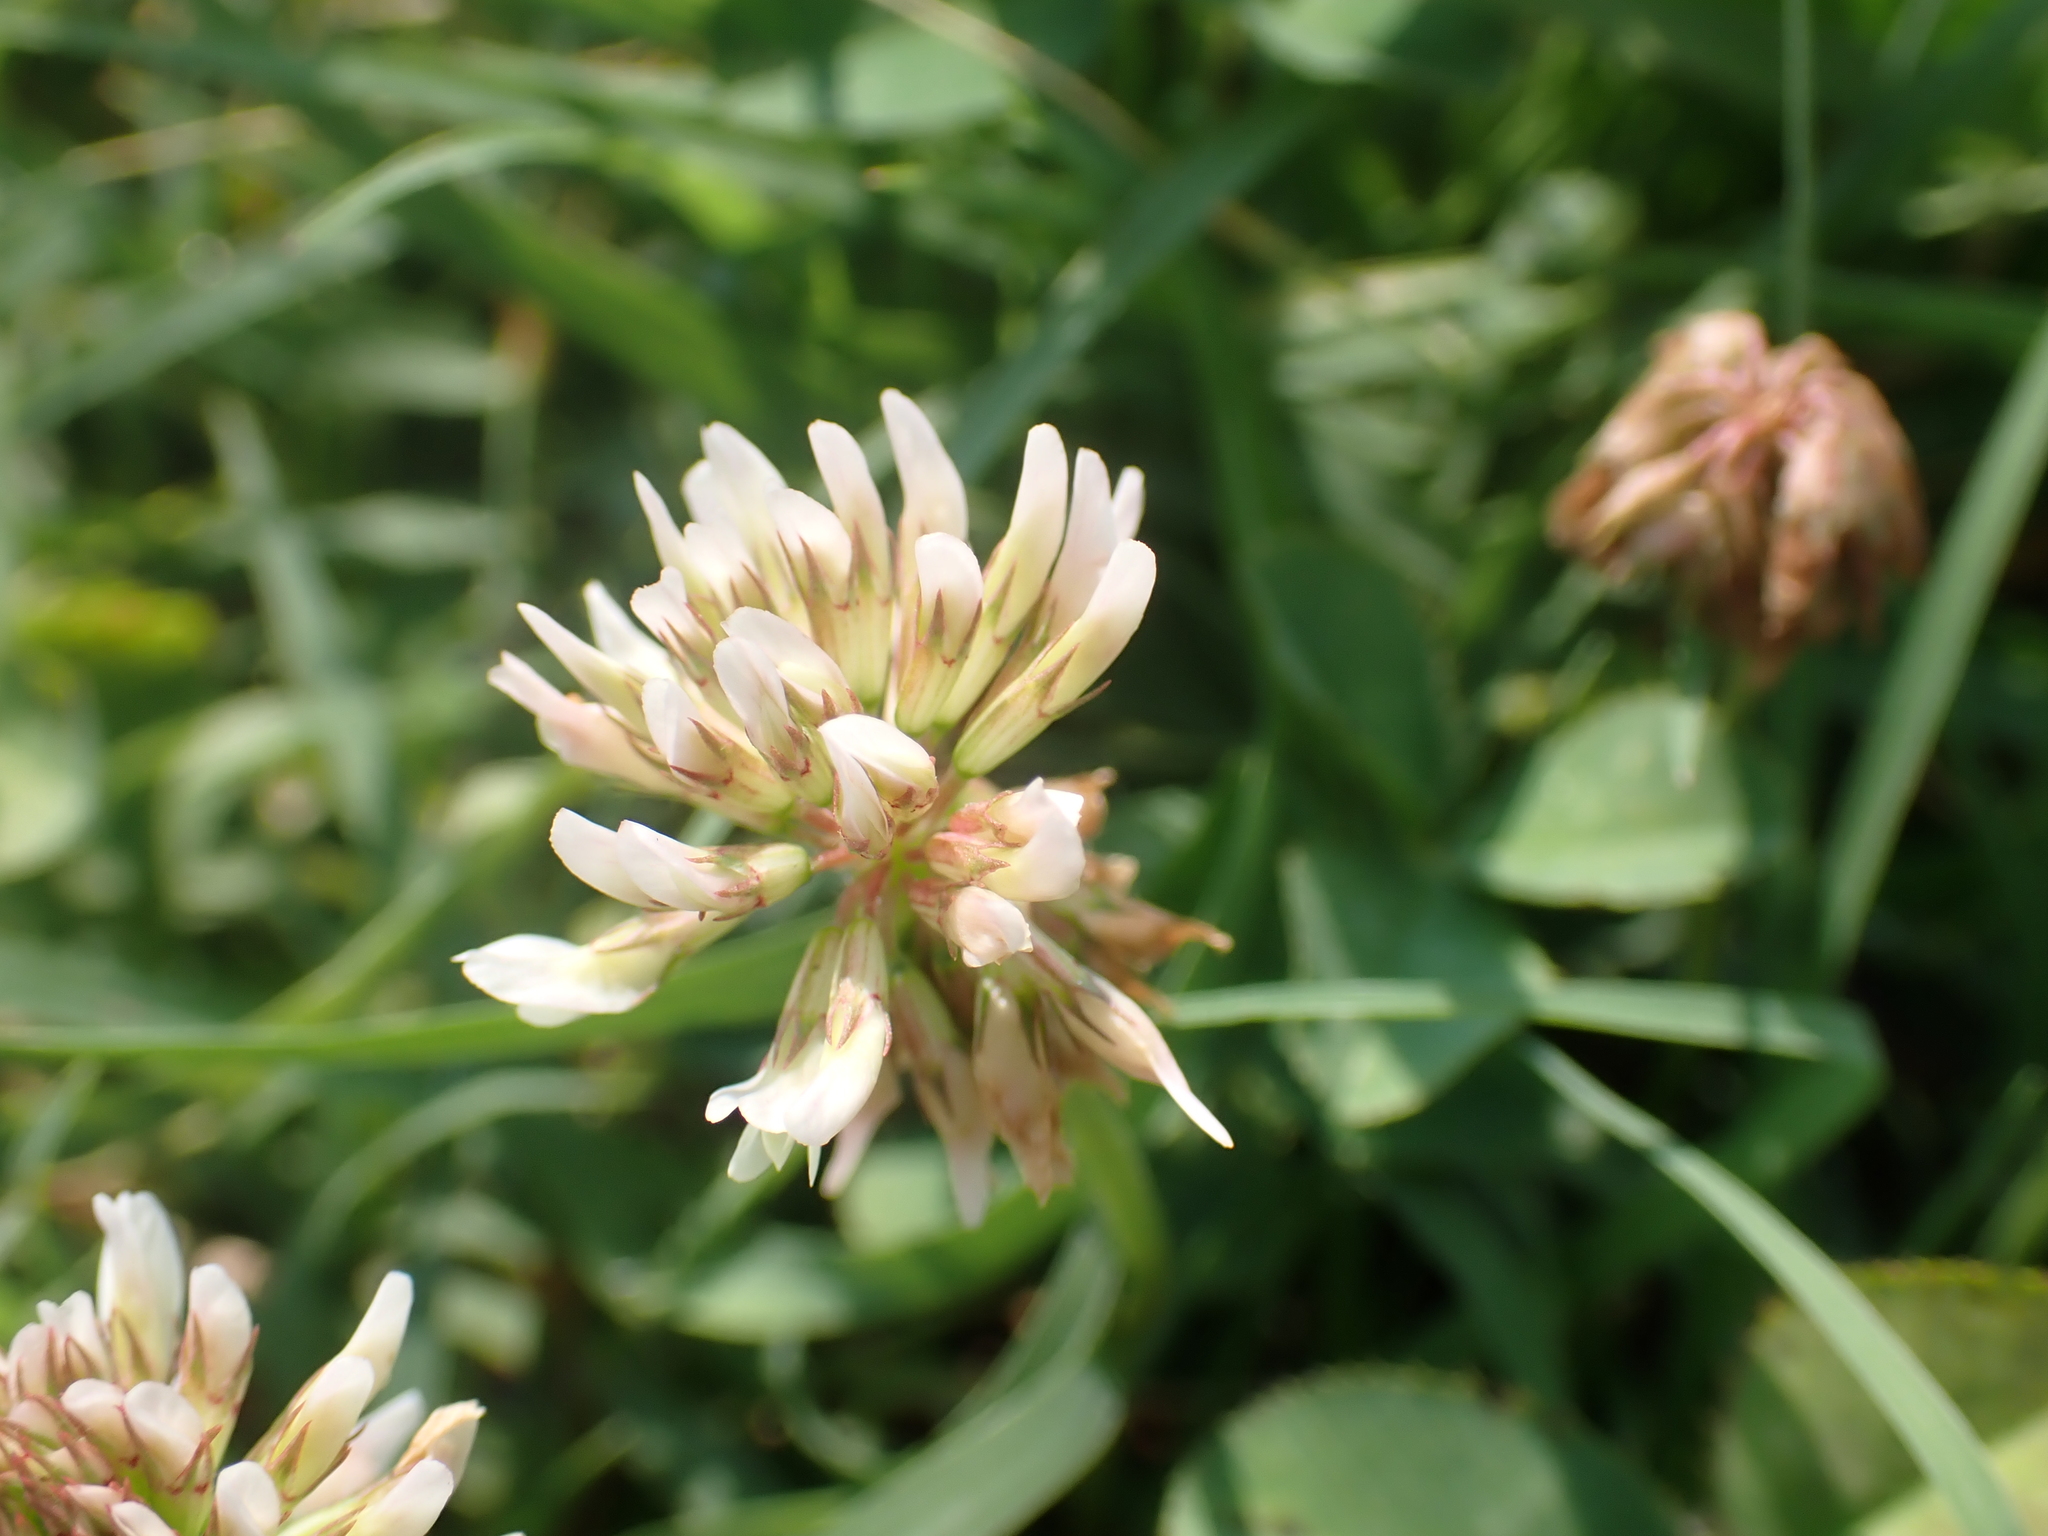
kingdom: Plantae
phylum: Tracheophyta
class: Magnoliopsida
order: Fabales
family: Fabaceae
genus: Trifolium
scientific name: Trifolium repens
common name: White clover
